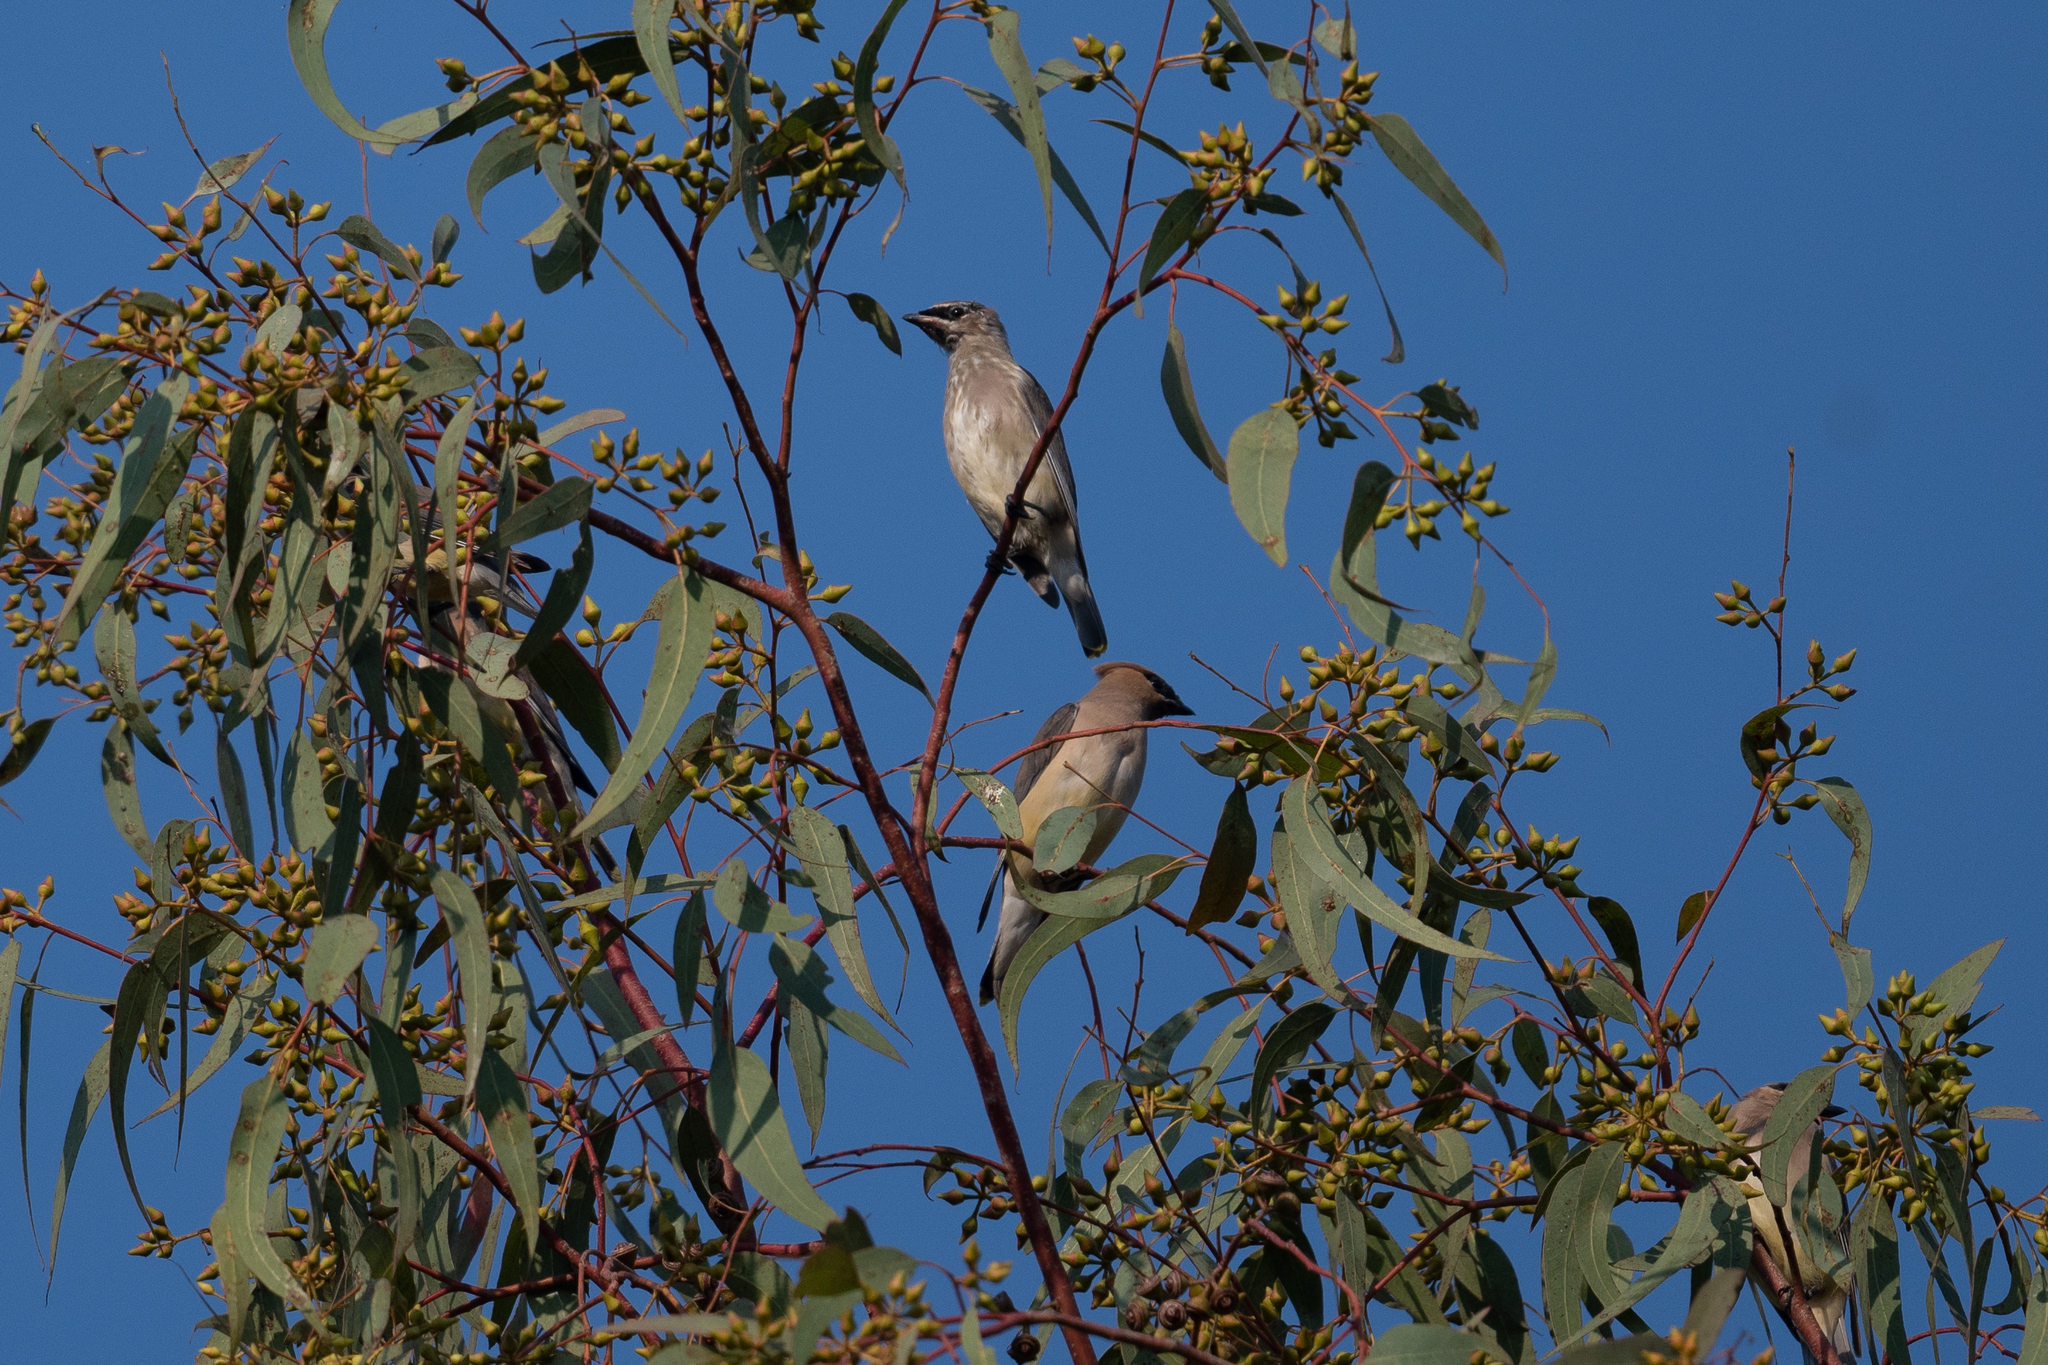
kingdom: Animalia
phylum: Chordata
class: Aves
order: Passeriformes
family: Bombycillidae
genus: Bombycilla
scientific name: Bombycilla cedrorum
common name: Cedar waxwing
